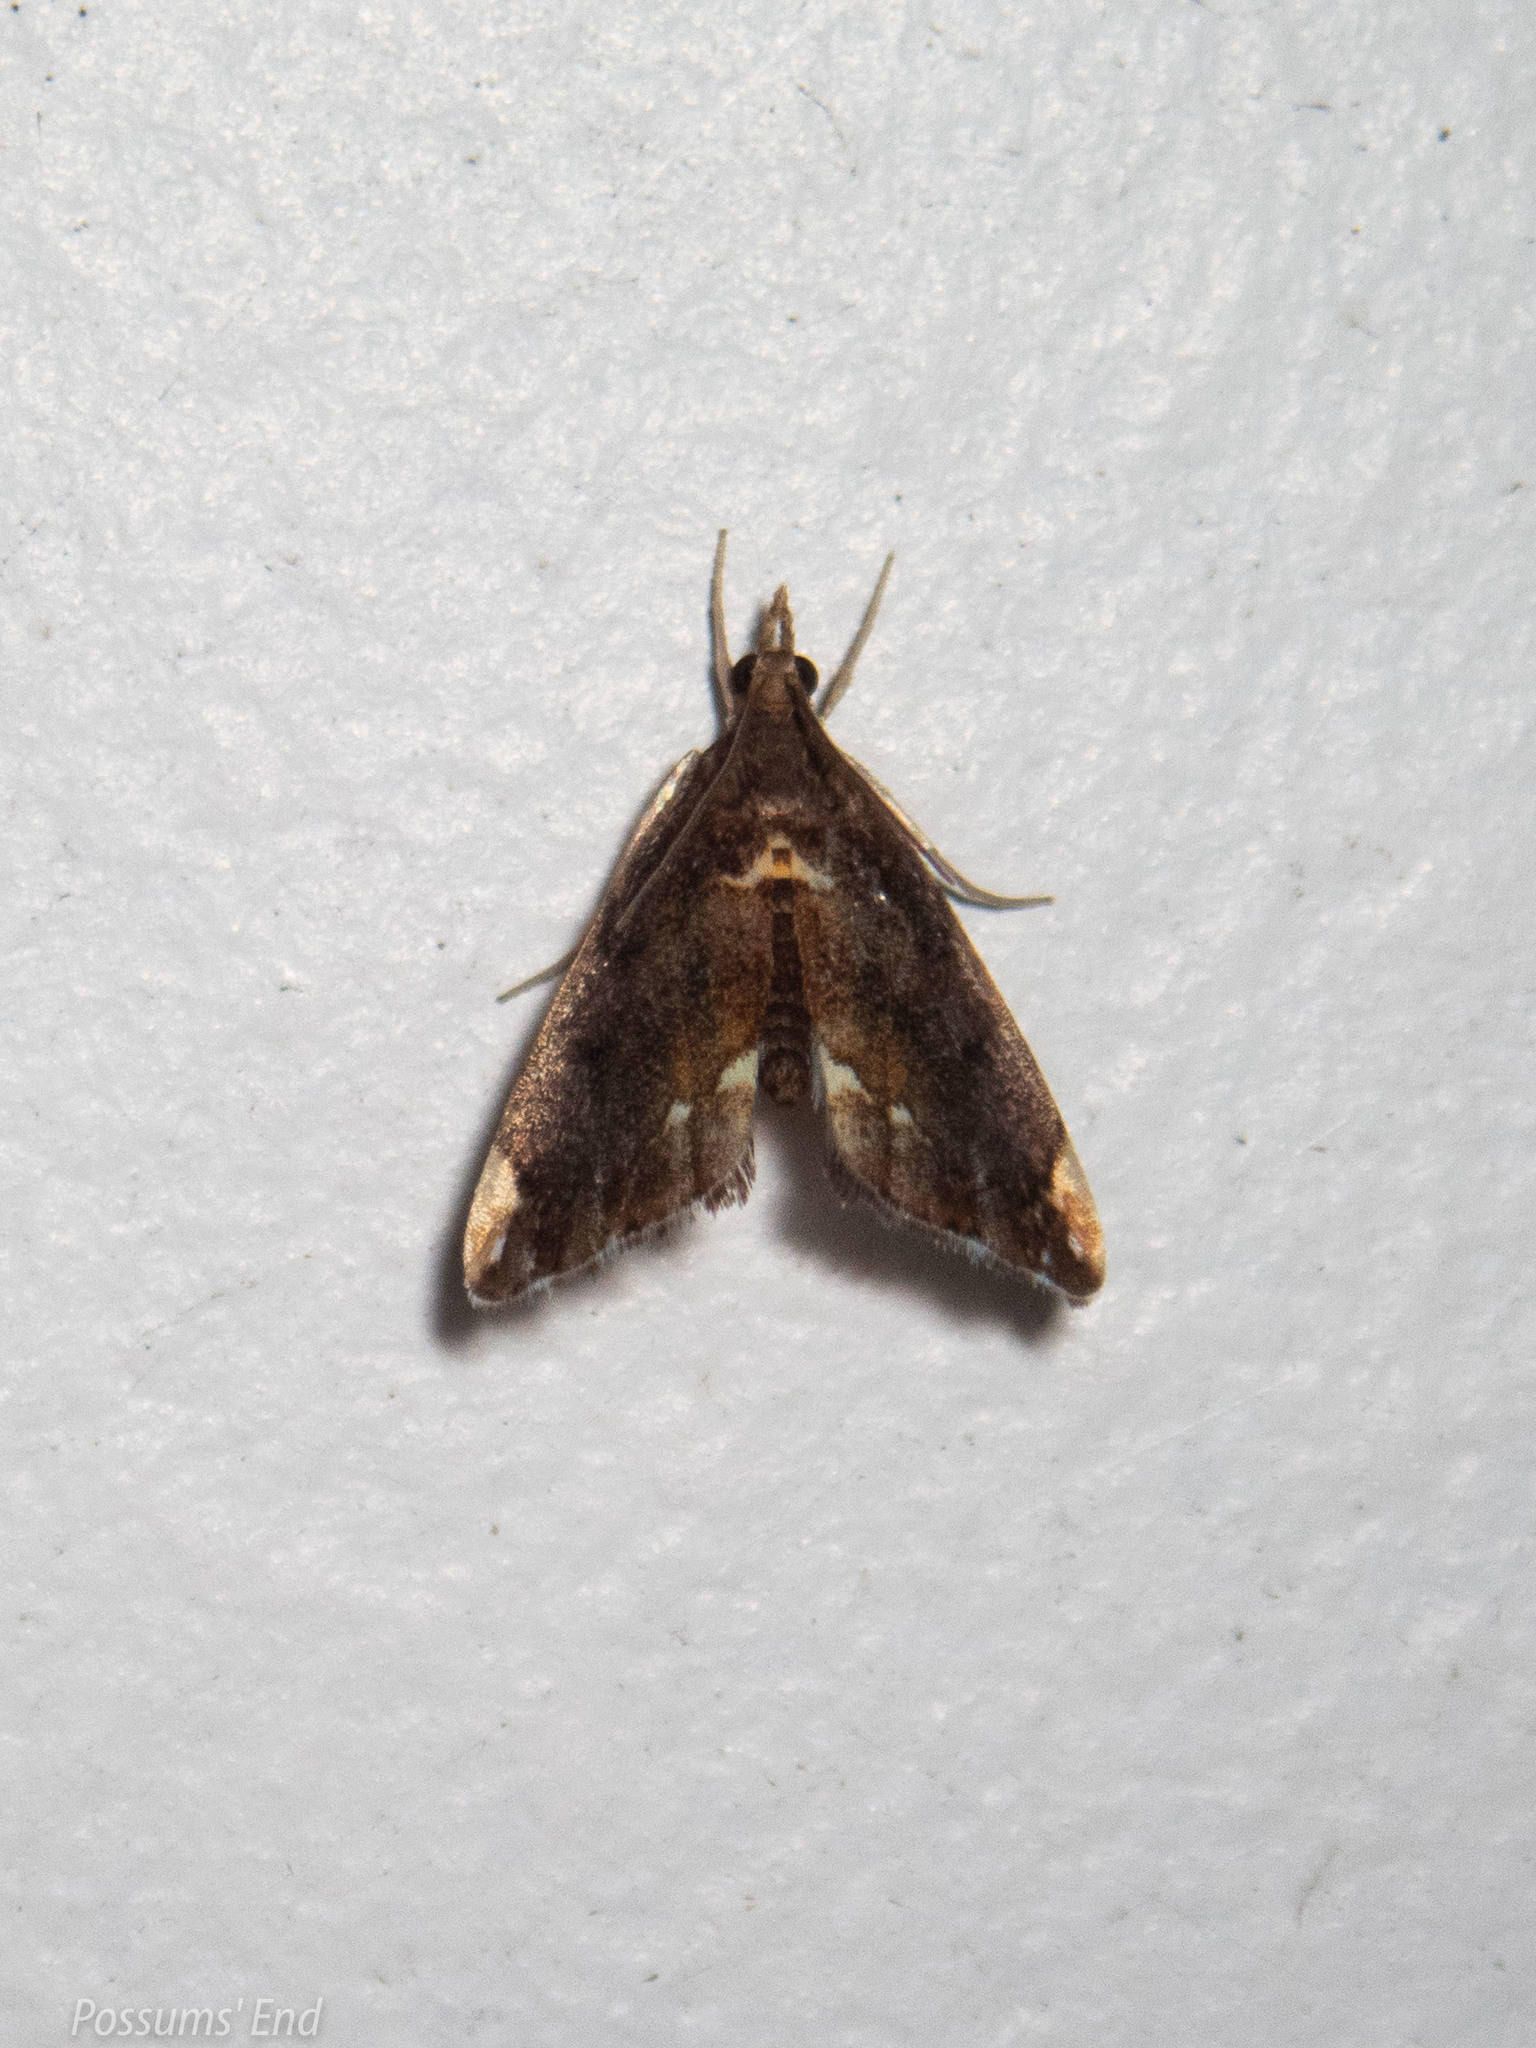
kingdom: Animalia
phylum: Arthropoda
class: Insecta
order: Lepidoptera
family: Crambidae
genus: Glaucocharis
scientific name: Glaucocharis pyrsophanes
